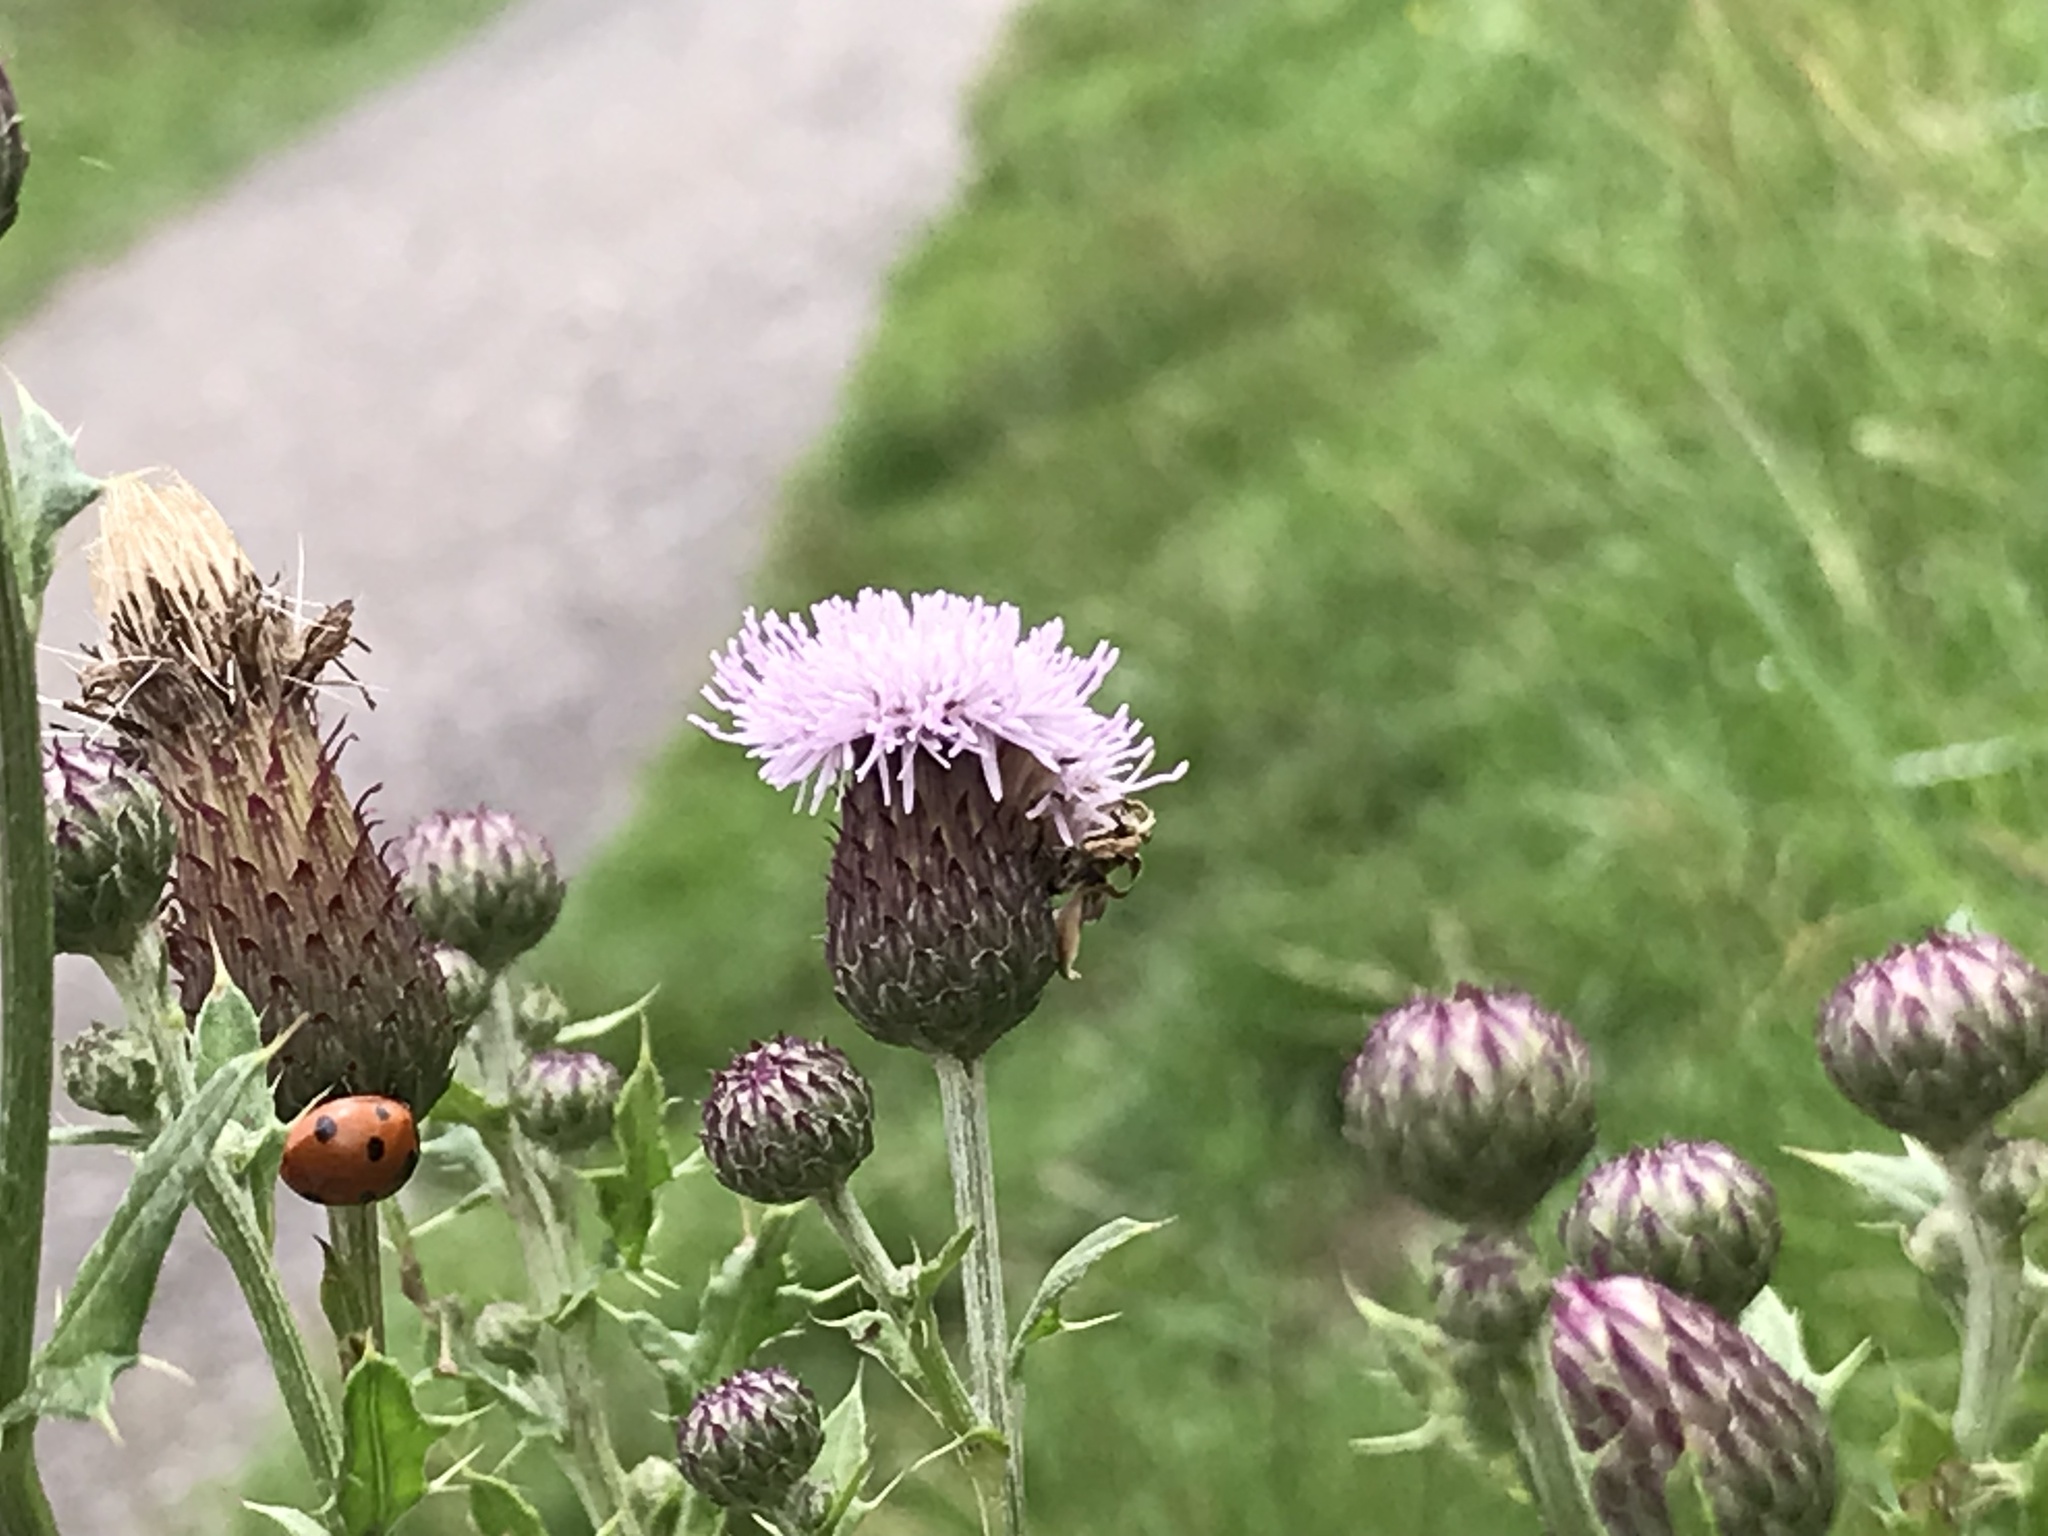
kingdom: Animalia
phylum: Arthropoda
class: Insecta
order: Coleoptera
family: Coccinellidae
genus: Coccinella
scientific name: Coccinella septempunctata
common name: Sevenspotted lady beetle
